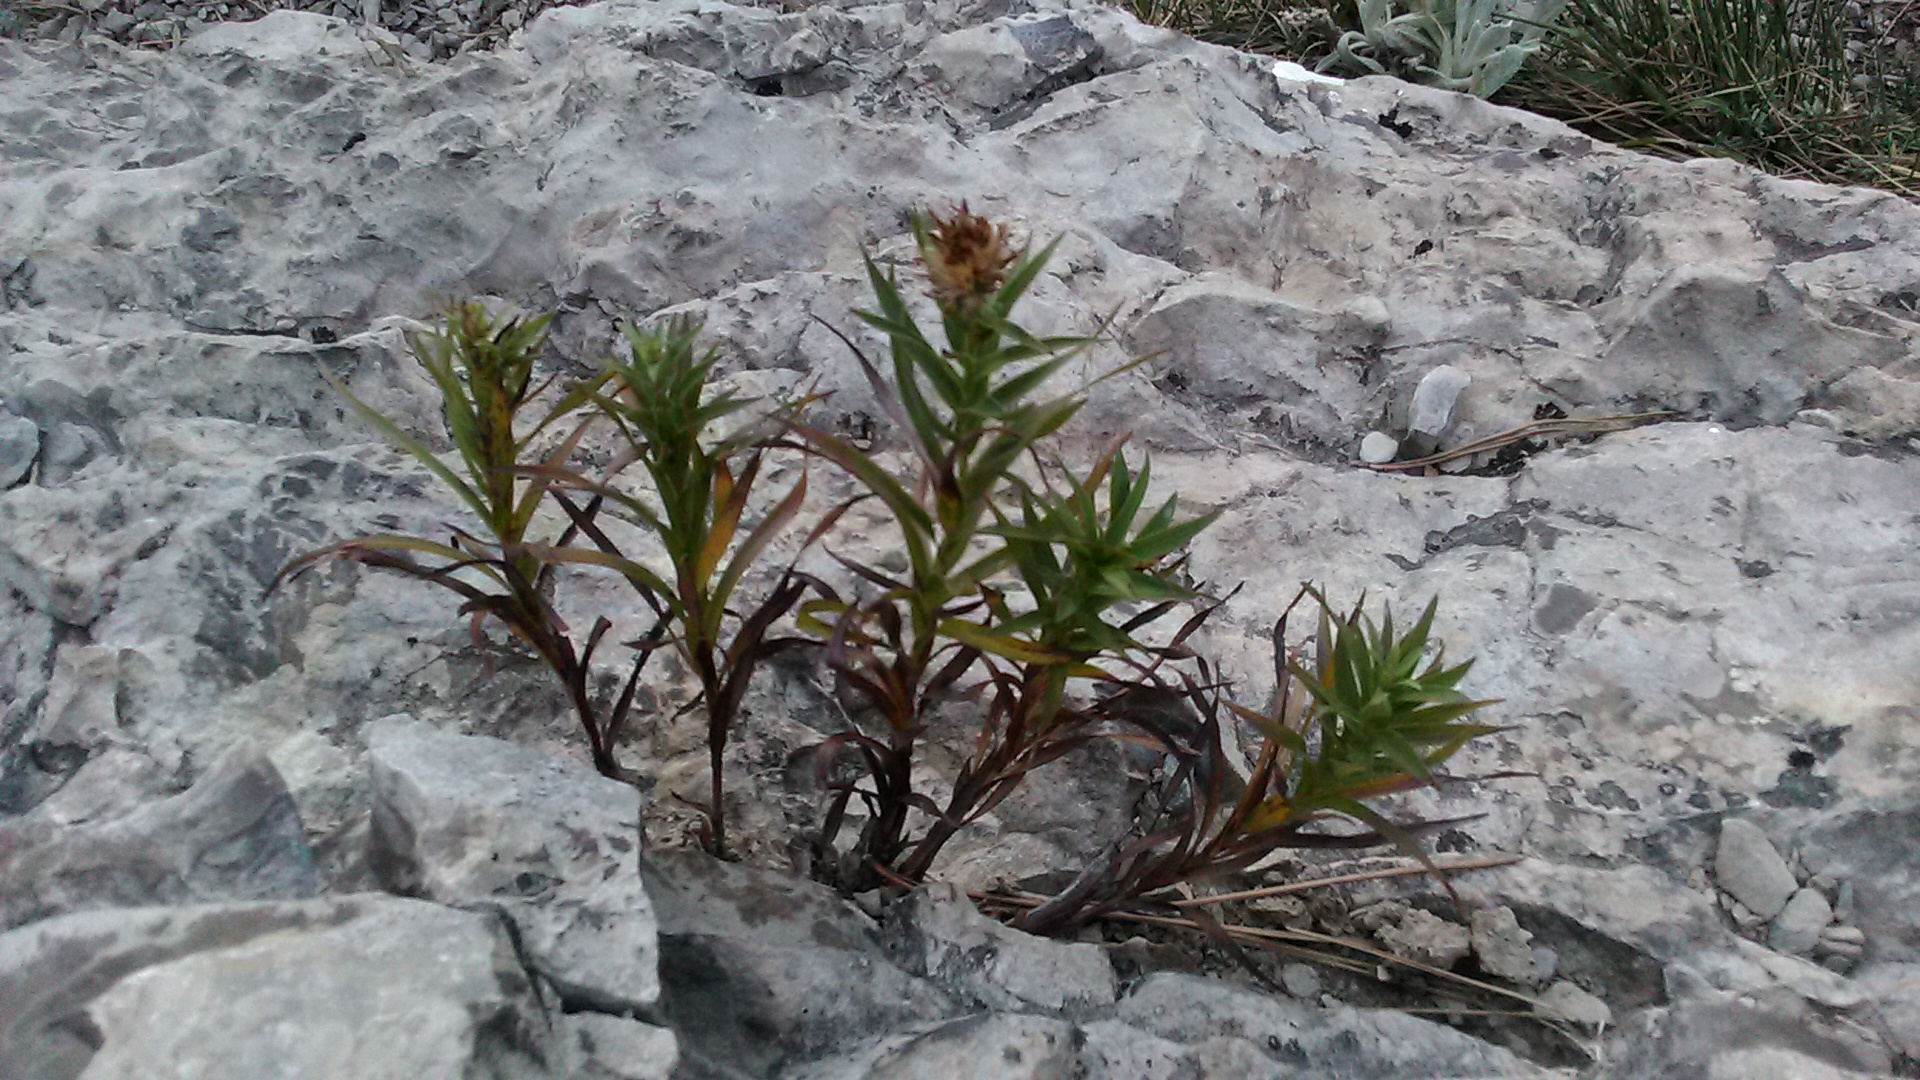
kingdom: Plantae
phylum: Tracheophyta
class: Magnoliopsida
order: Asterales
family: Asteraceae
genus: Pentanema
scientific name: Pentanema ensifolium
